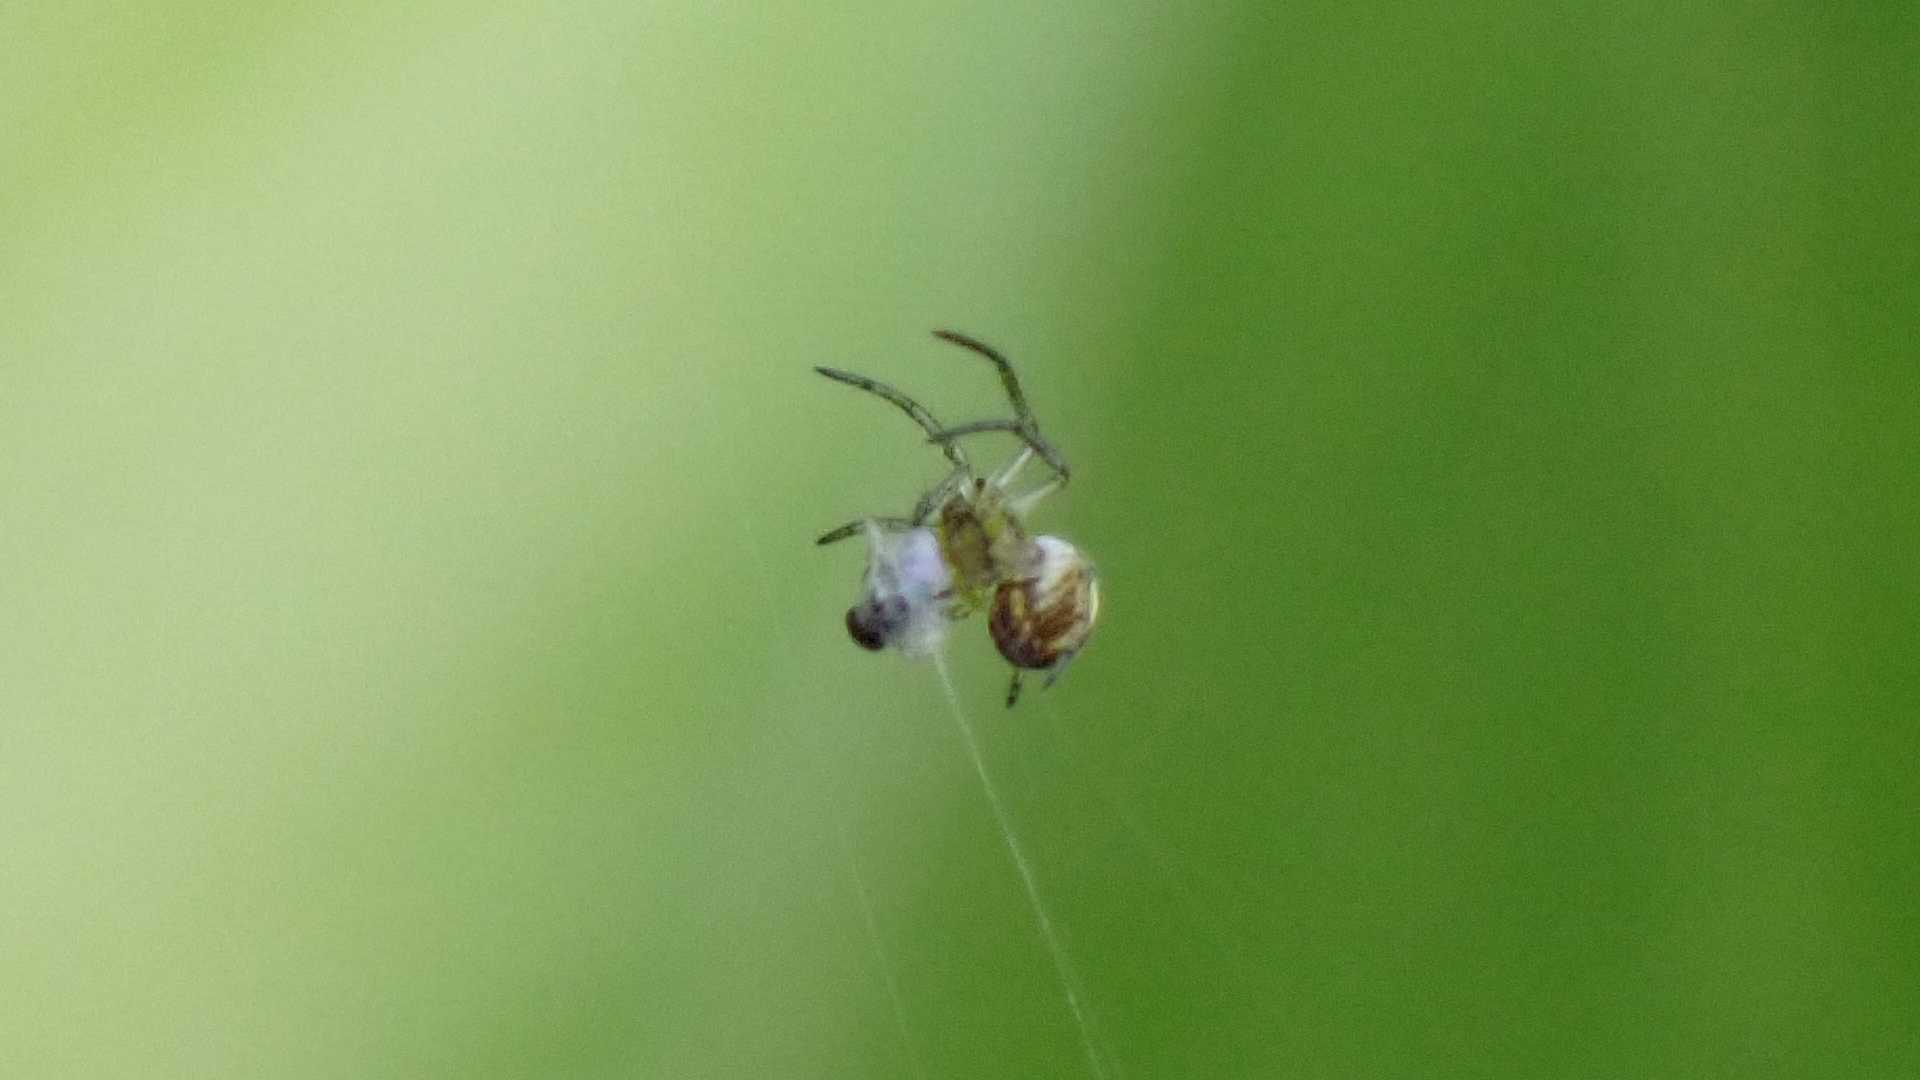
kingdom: Animalia
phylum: Arthropoda
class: Arachnida
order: Araneae
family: Araneidae
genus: Mangora
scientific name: Mangora acalypha
